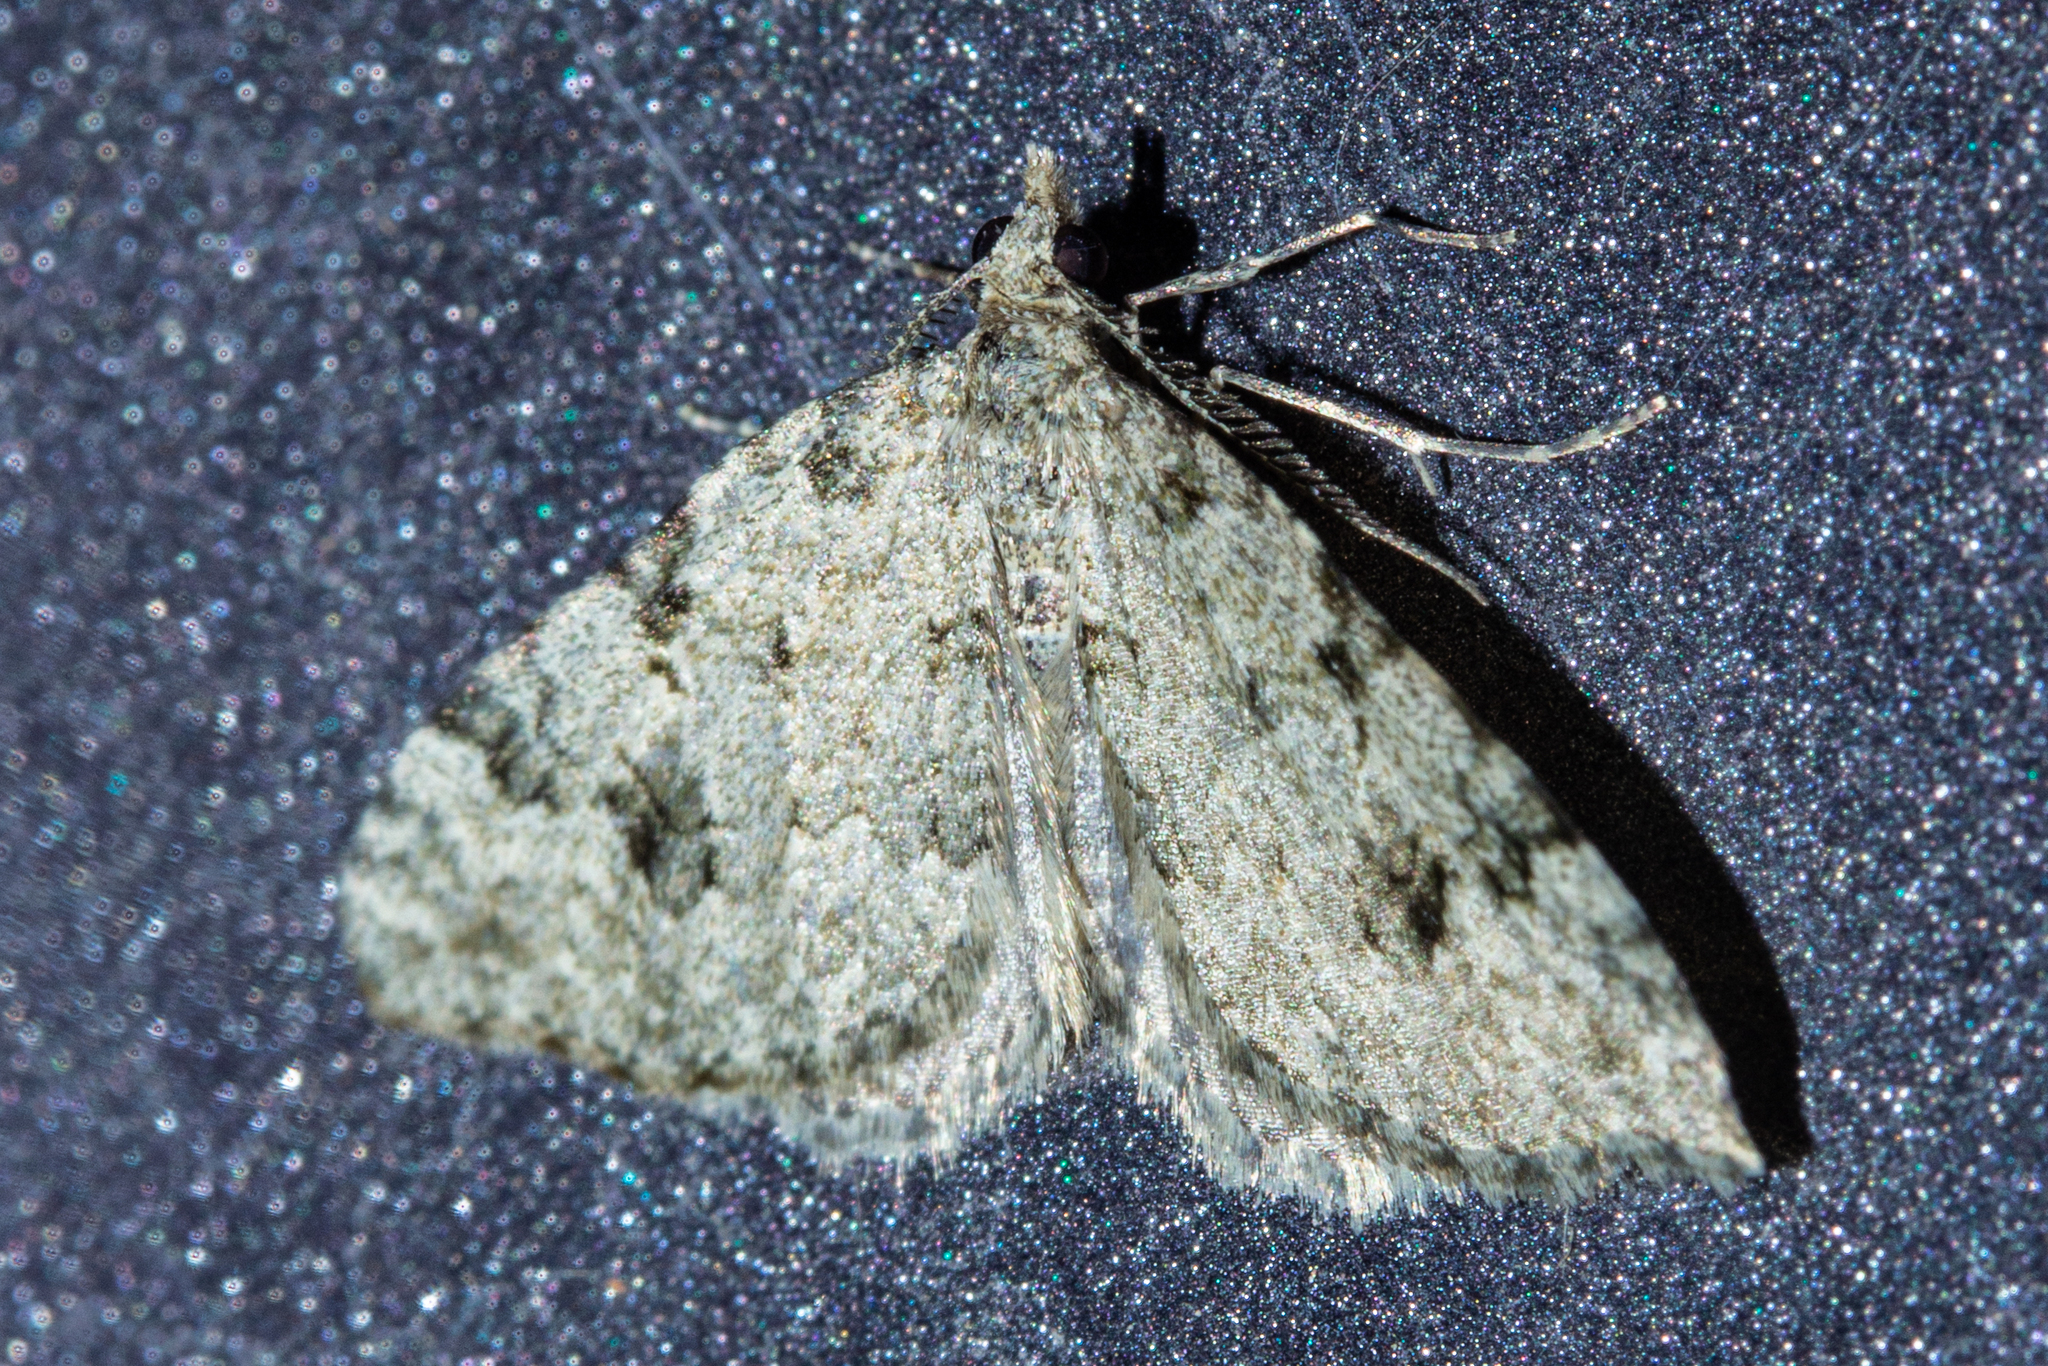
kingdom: Animalia
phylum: Arthropoda
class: Insecta
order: Lepidoptera
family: Geometridae
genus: Helastia
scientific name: Helastia cinerearia
